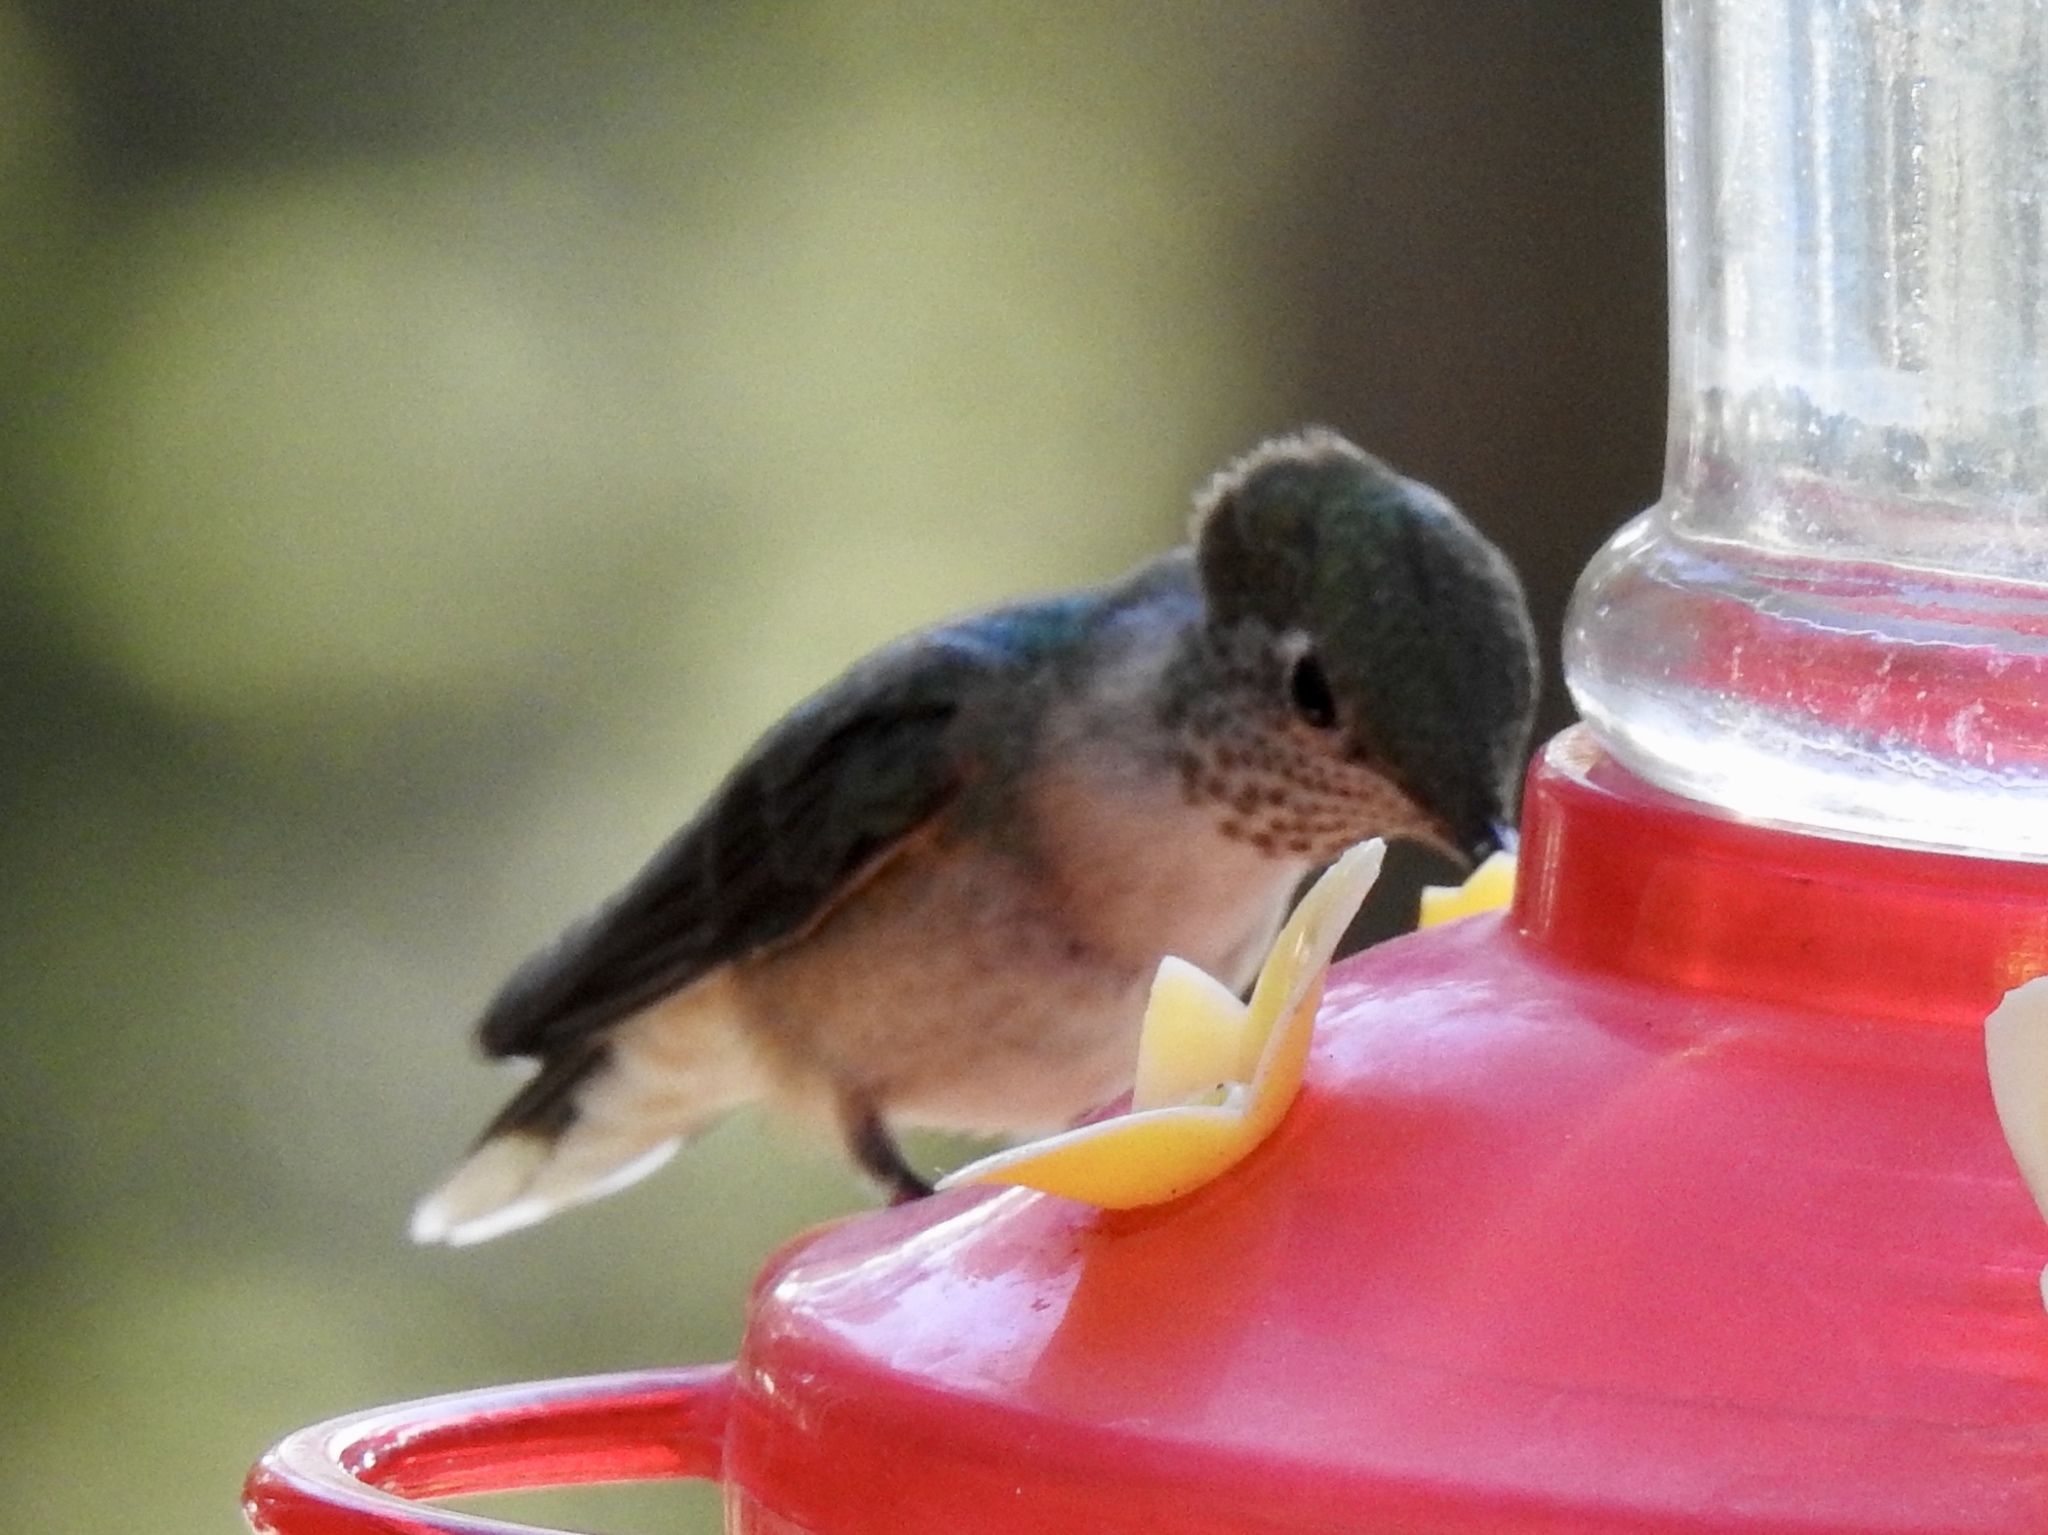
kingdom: Animalia
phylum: Chordata
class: Aves
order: Apodiformes
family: Trochilidae
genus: Selasphorus
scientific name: Selasphorus rufus
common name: Rufous hummingbird
